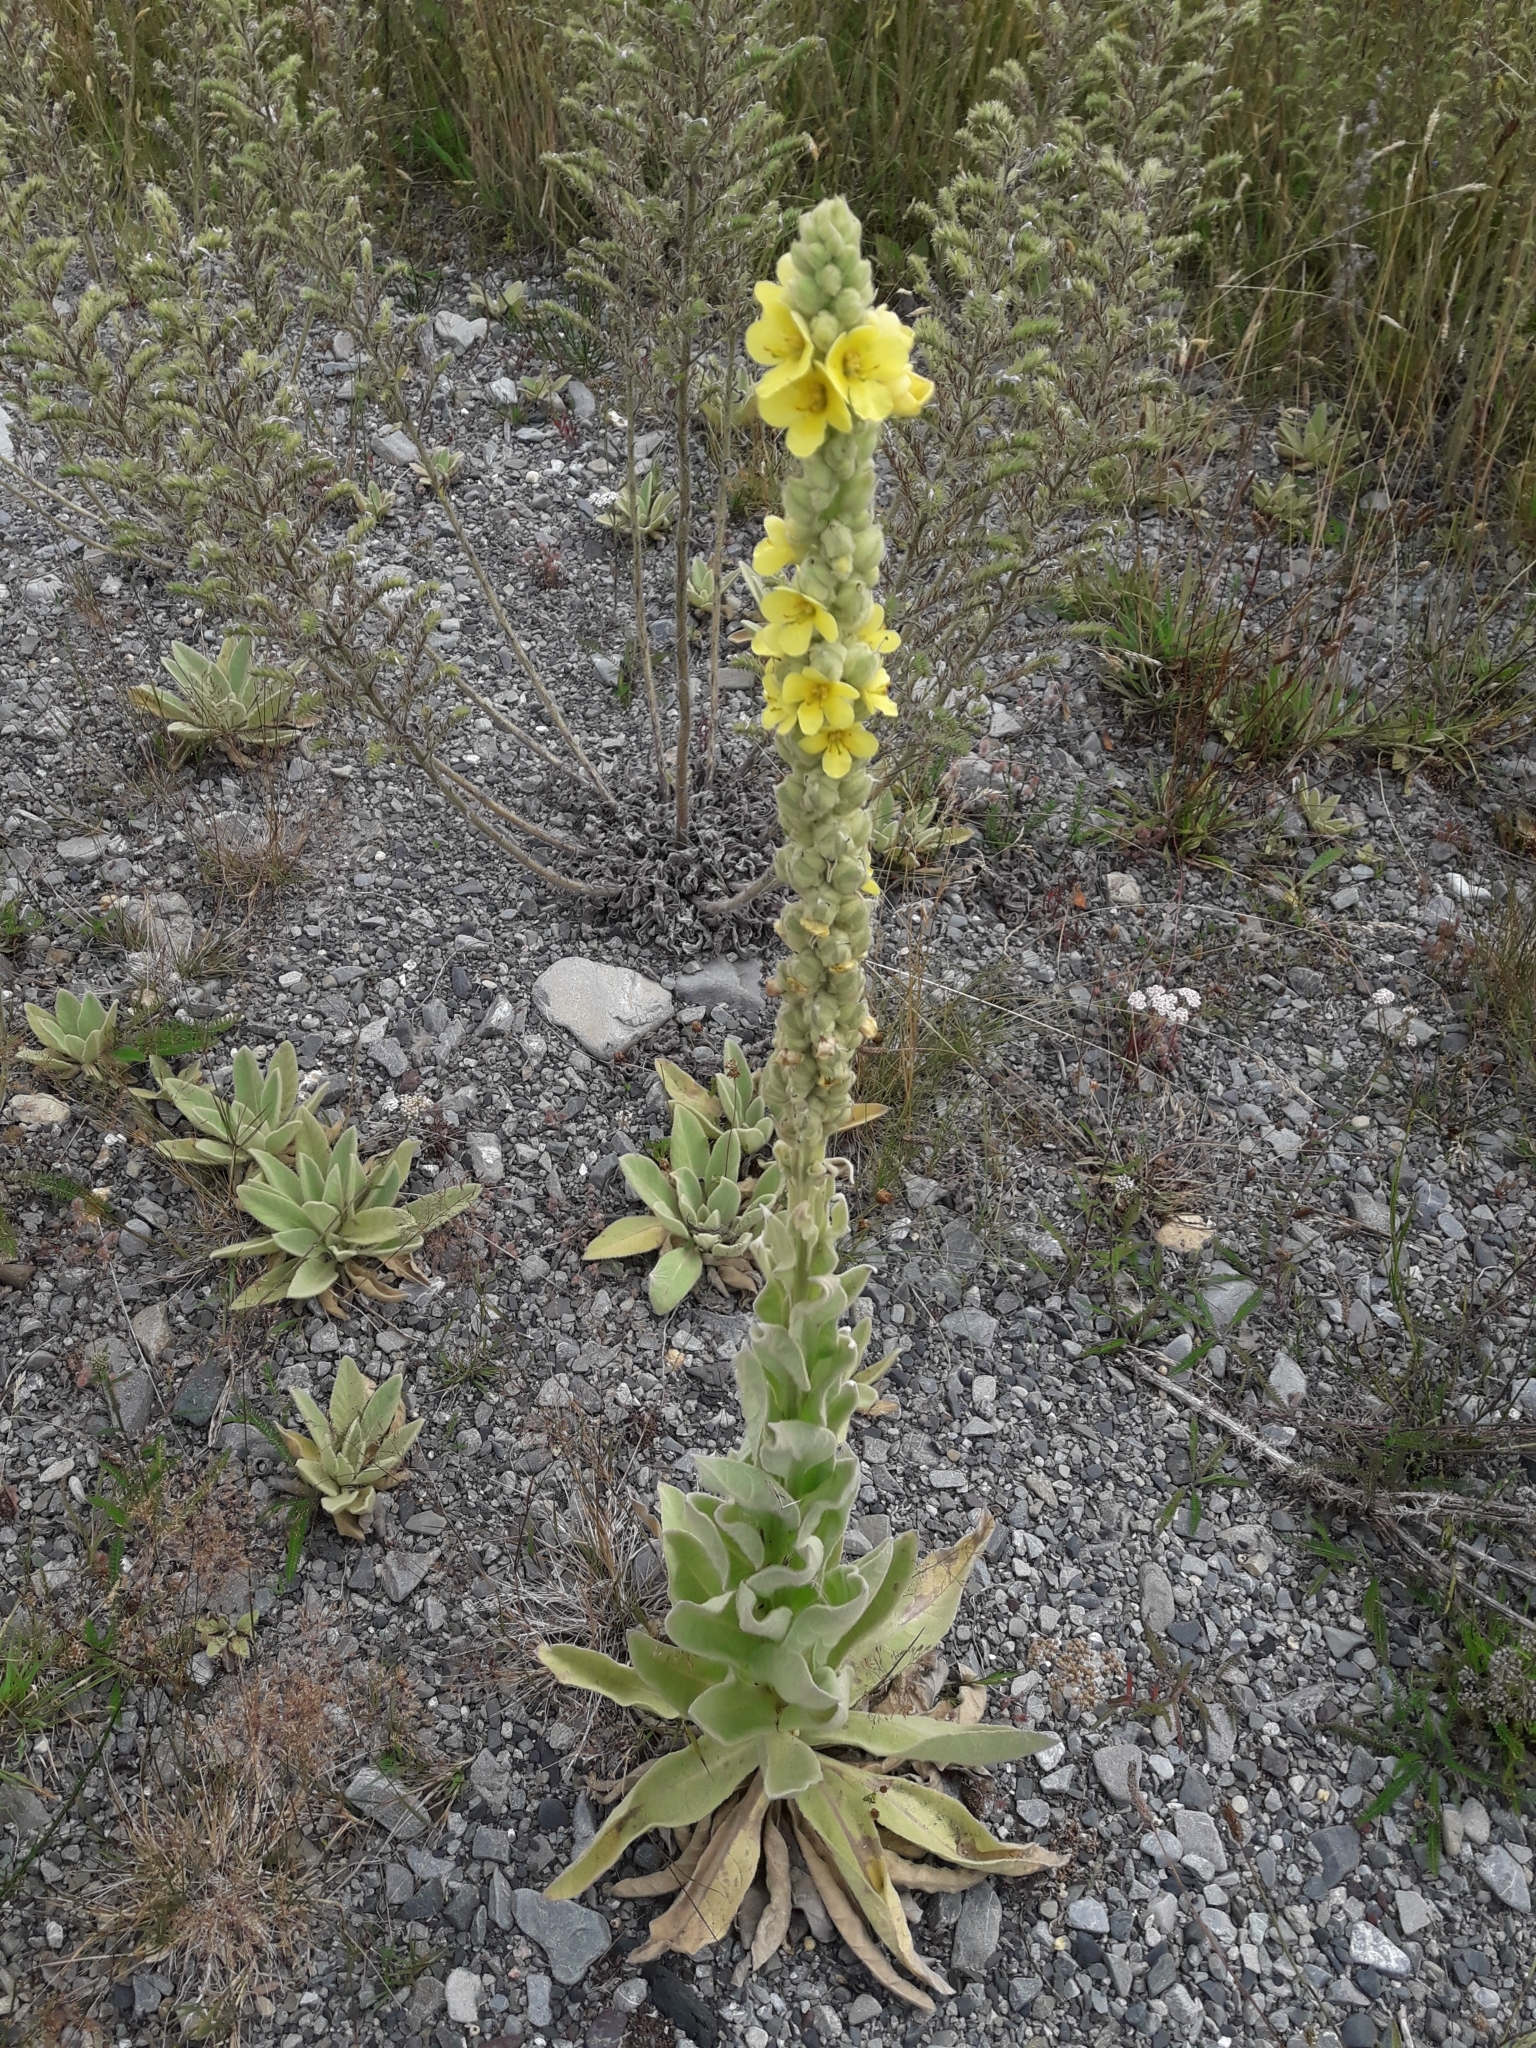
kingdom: Plantae
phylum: Tracheophyta
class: Magnoliopsida
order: Lamiales
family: Scrophulariaceae
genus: Verbascum
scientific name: Verbascum thapsus
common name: Common mullein
